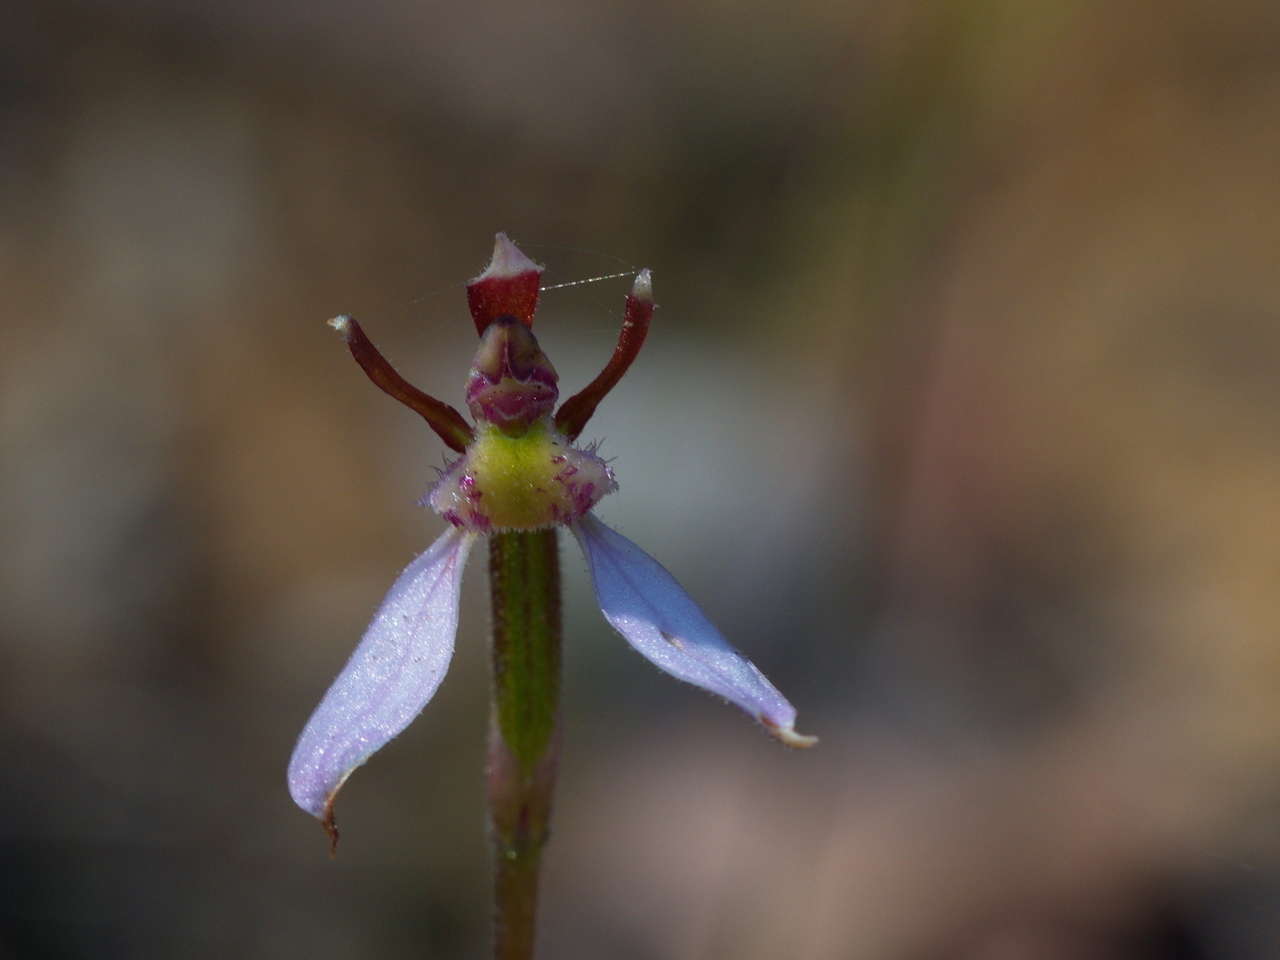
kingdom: Plantae
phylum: Tracheophyta
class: Liliopsida
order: Asparagales
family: Orchidaceae
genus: Eriochilus
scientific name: Eriochilus cucullatus
